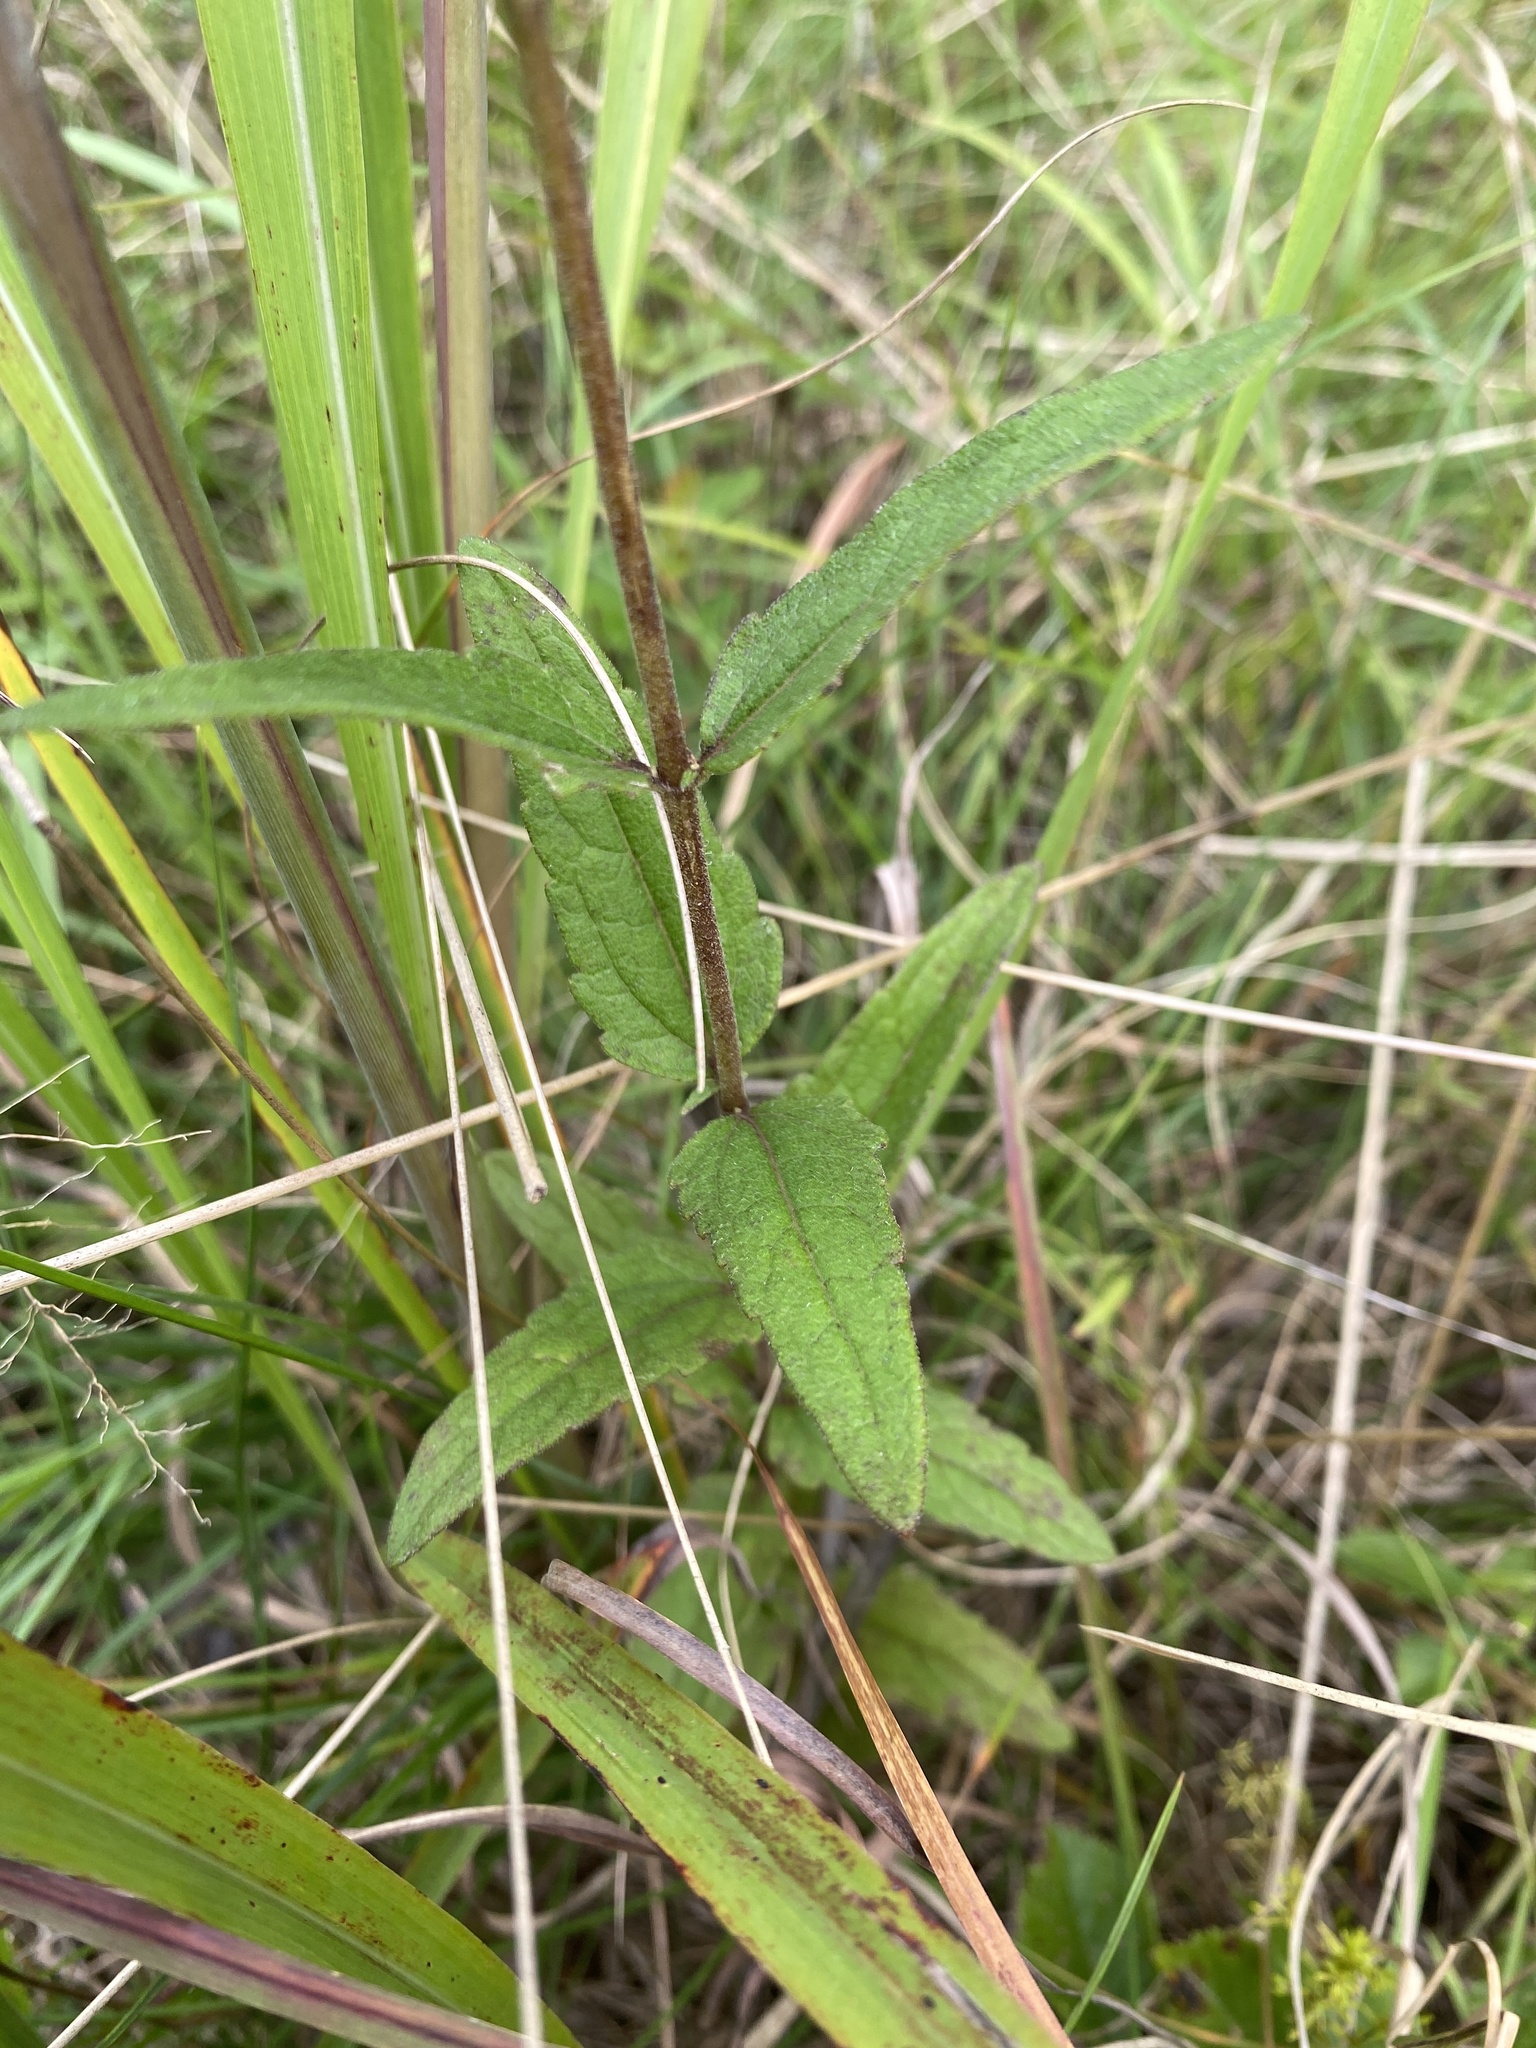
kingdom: Plantae
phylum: Tracheophyta
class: Magnoliopsida
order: Asterales
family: Asteraceae
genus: Eupatorium
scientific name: Eupatorium pilosum
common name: Rough boneset
